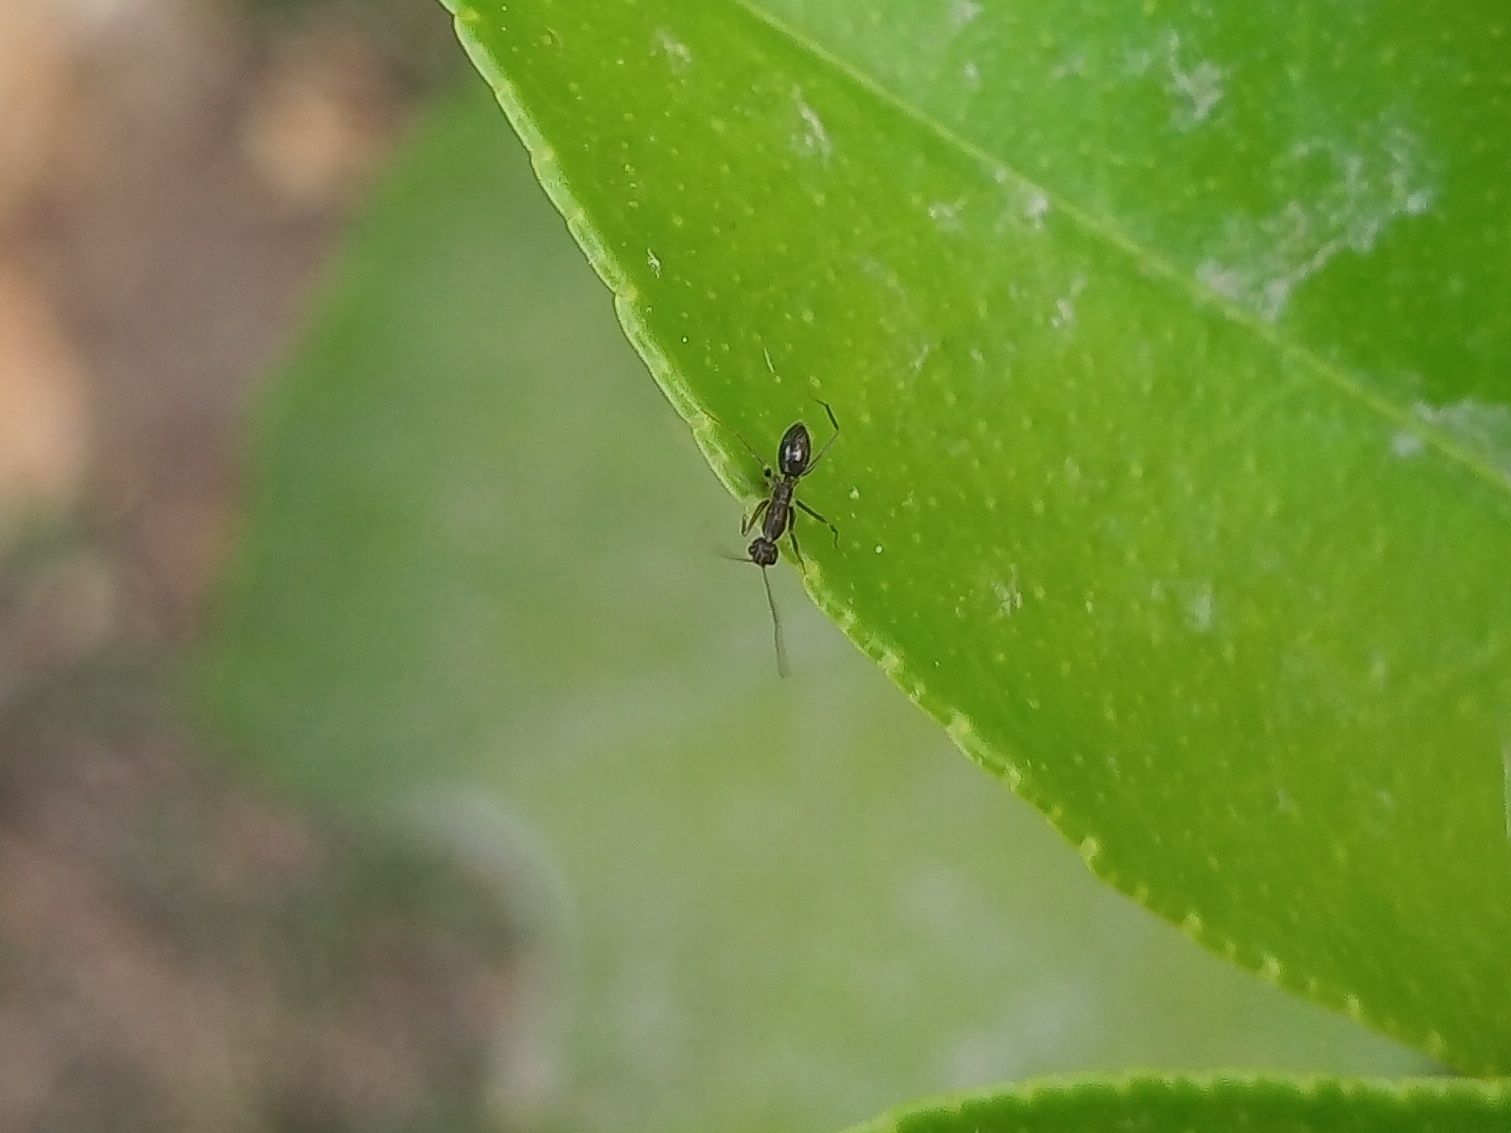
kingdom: Animalia
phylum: Arthropoda
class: Insecta
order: Hymenoptera
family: Formicidae
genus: Paratrechina
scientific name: Paratrechina longicornis
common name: Longhorned crazy ant
